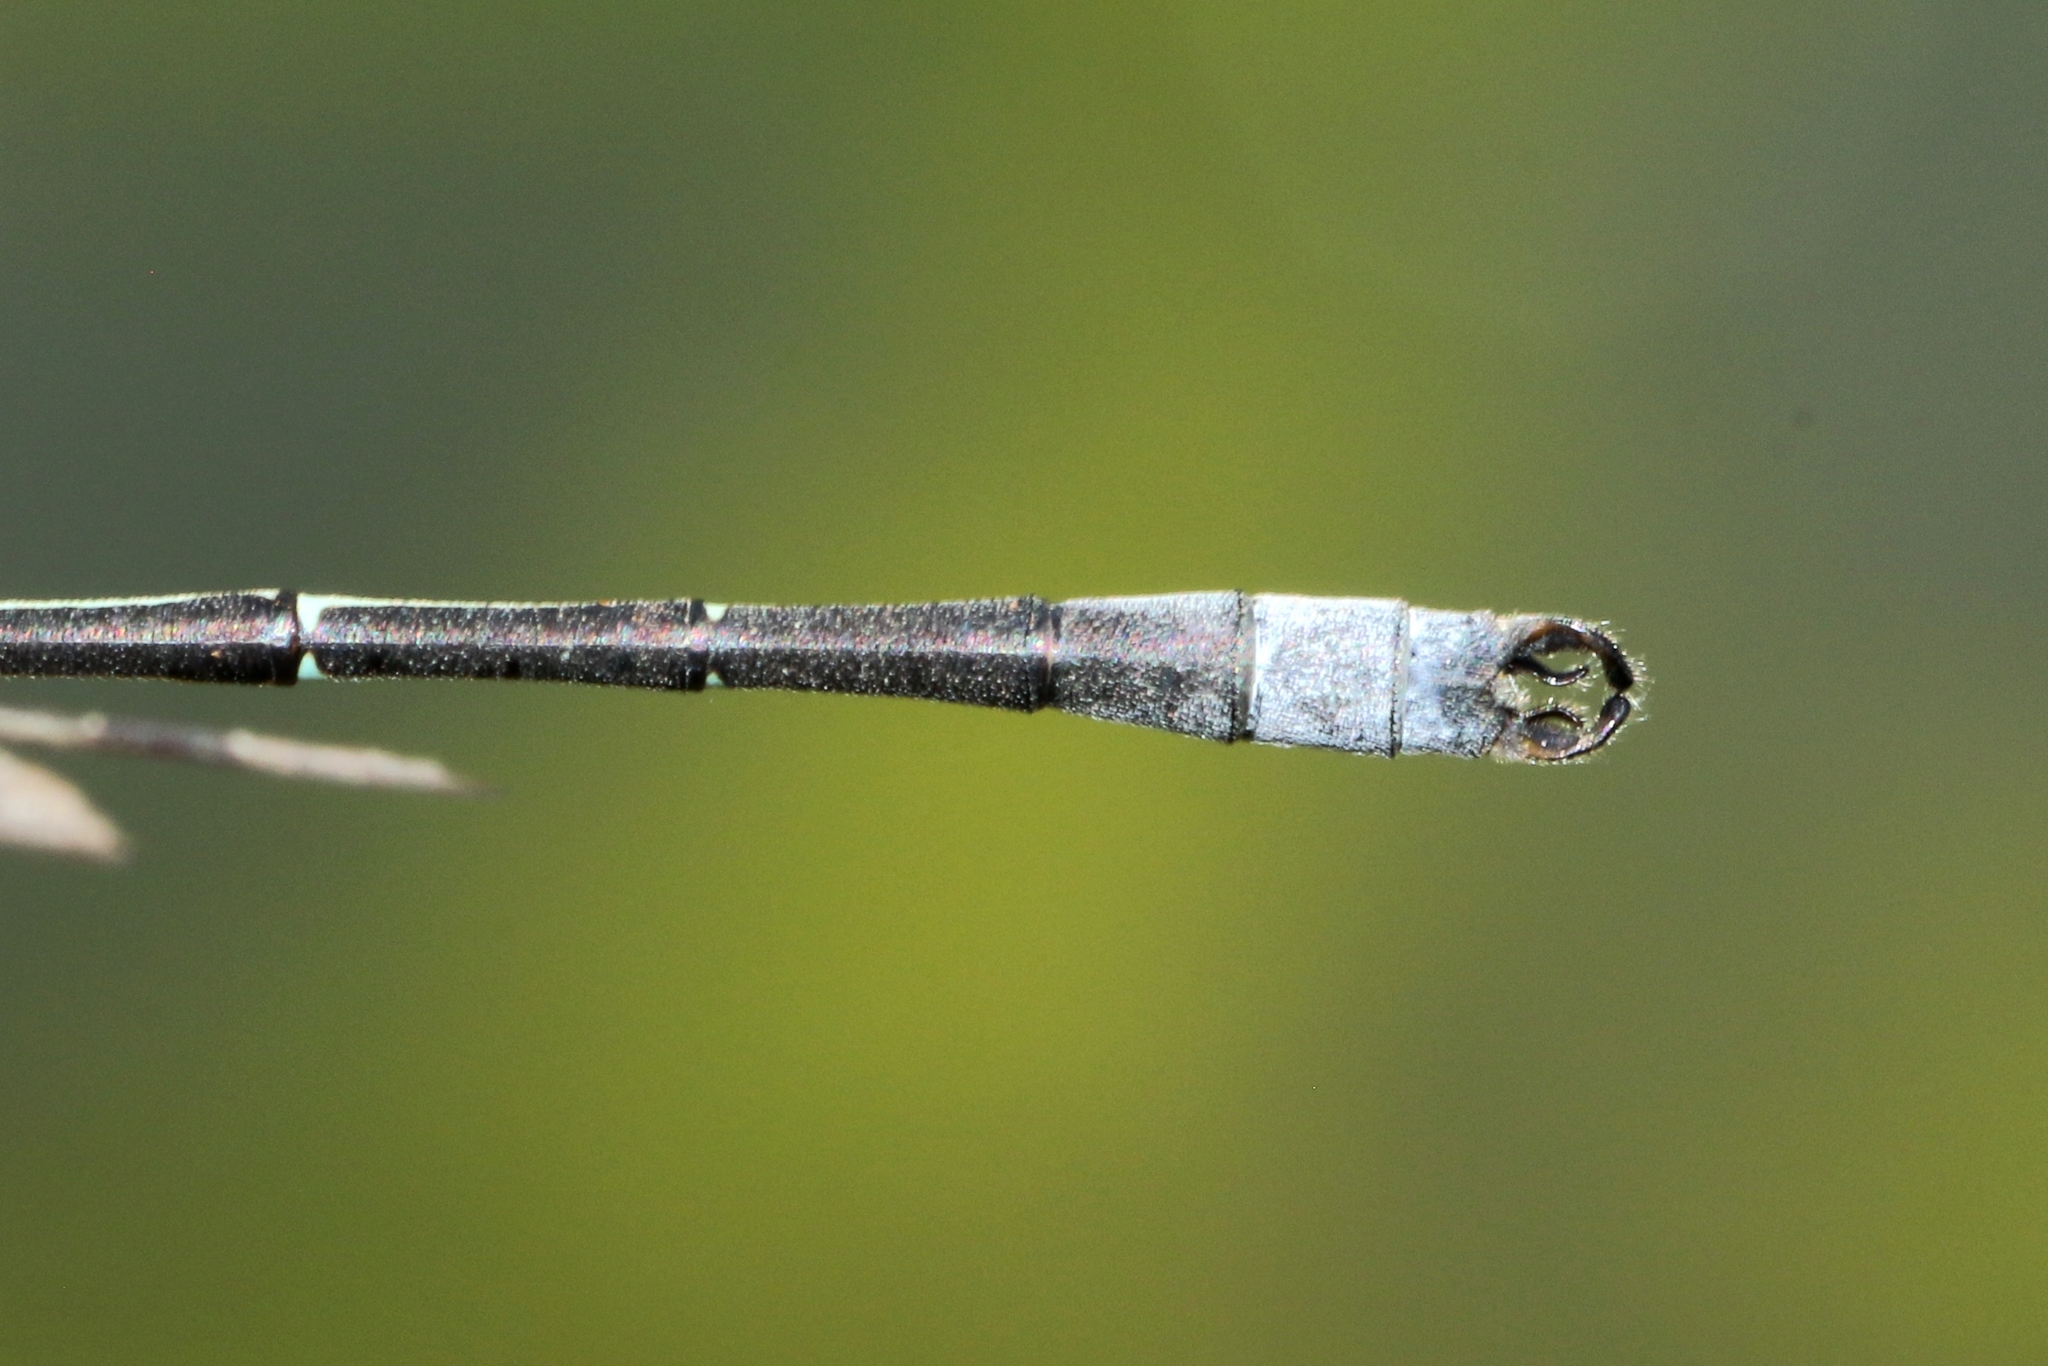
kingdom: Animalia
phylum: Arthropoda
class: Insecta
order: Odonata
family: Lestidae
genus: Lestes
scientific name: Lestes unguiculatus
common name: Lyre-tipped spreadwing
